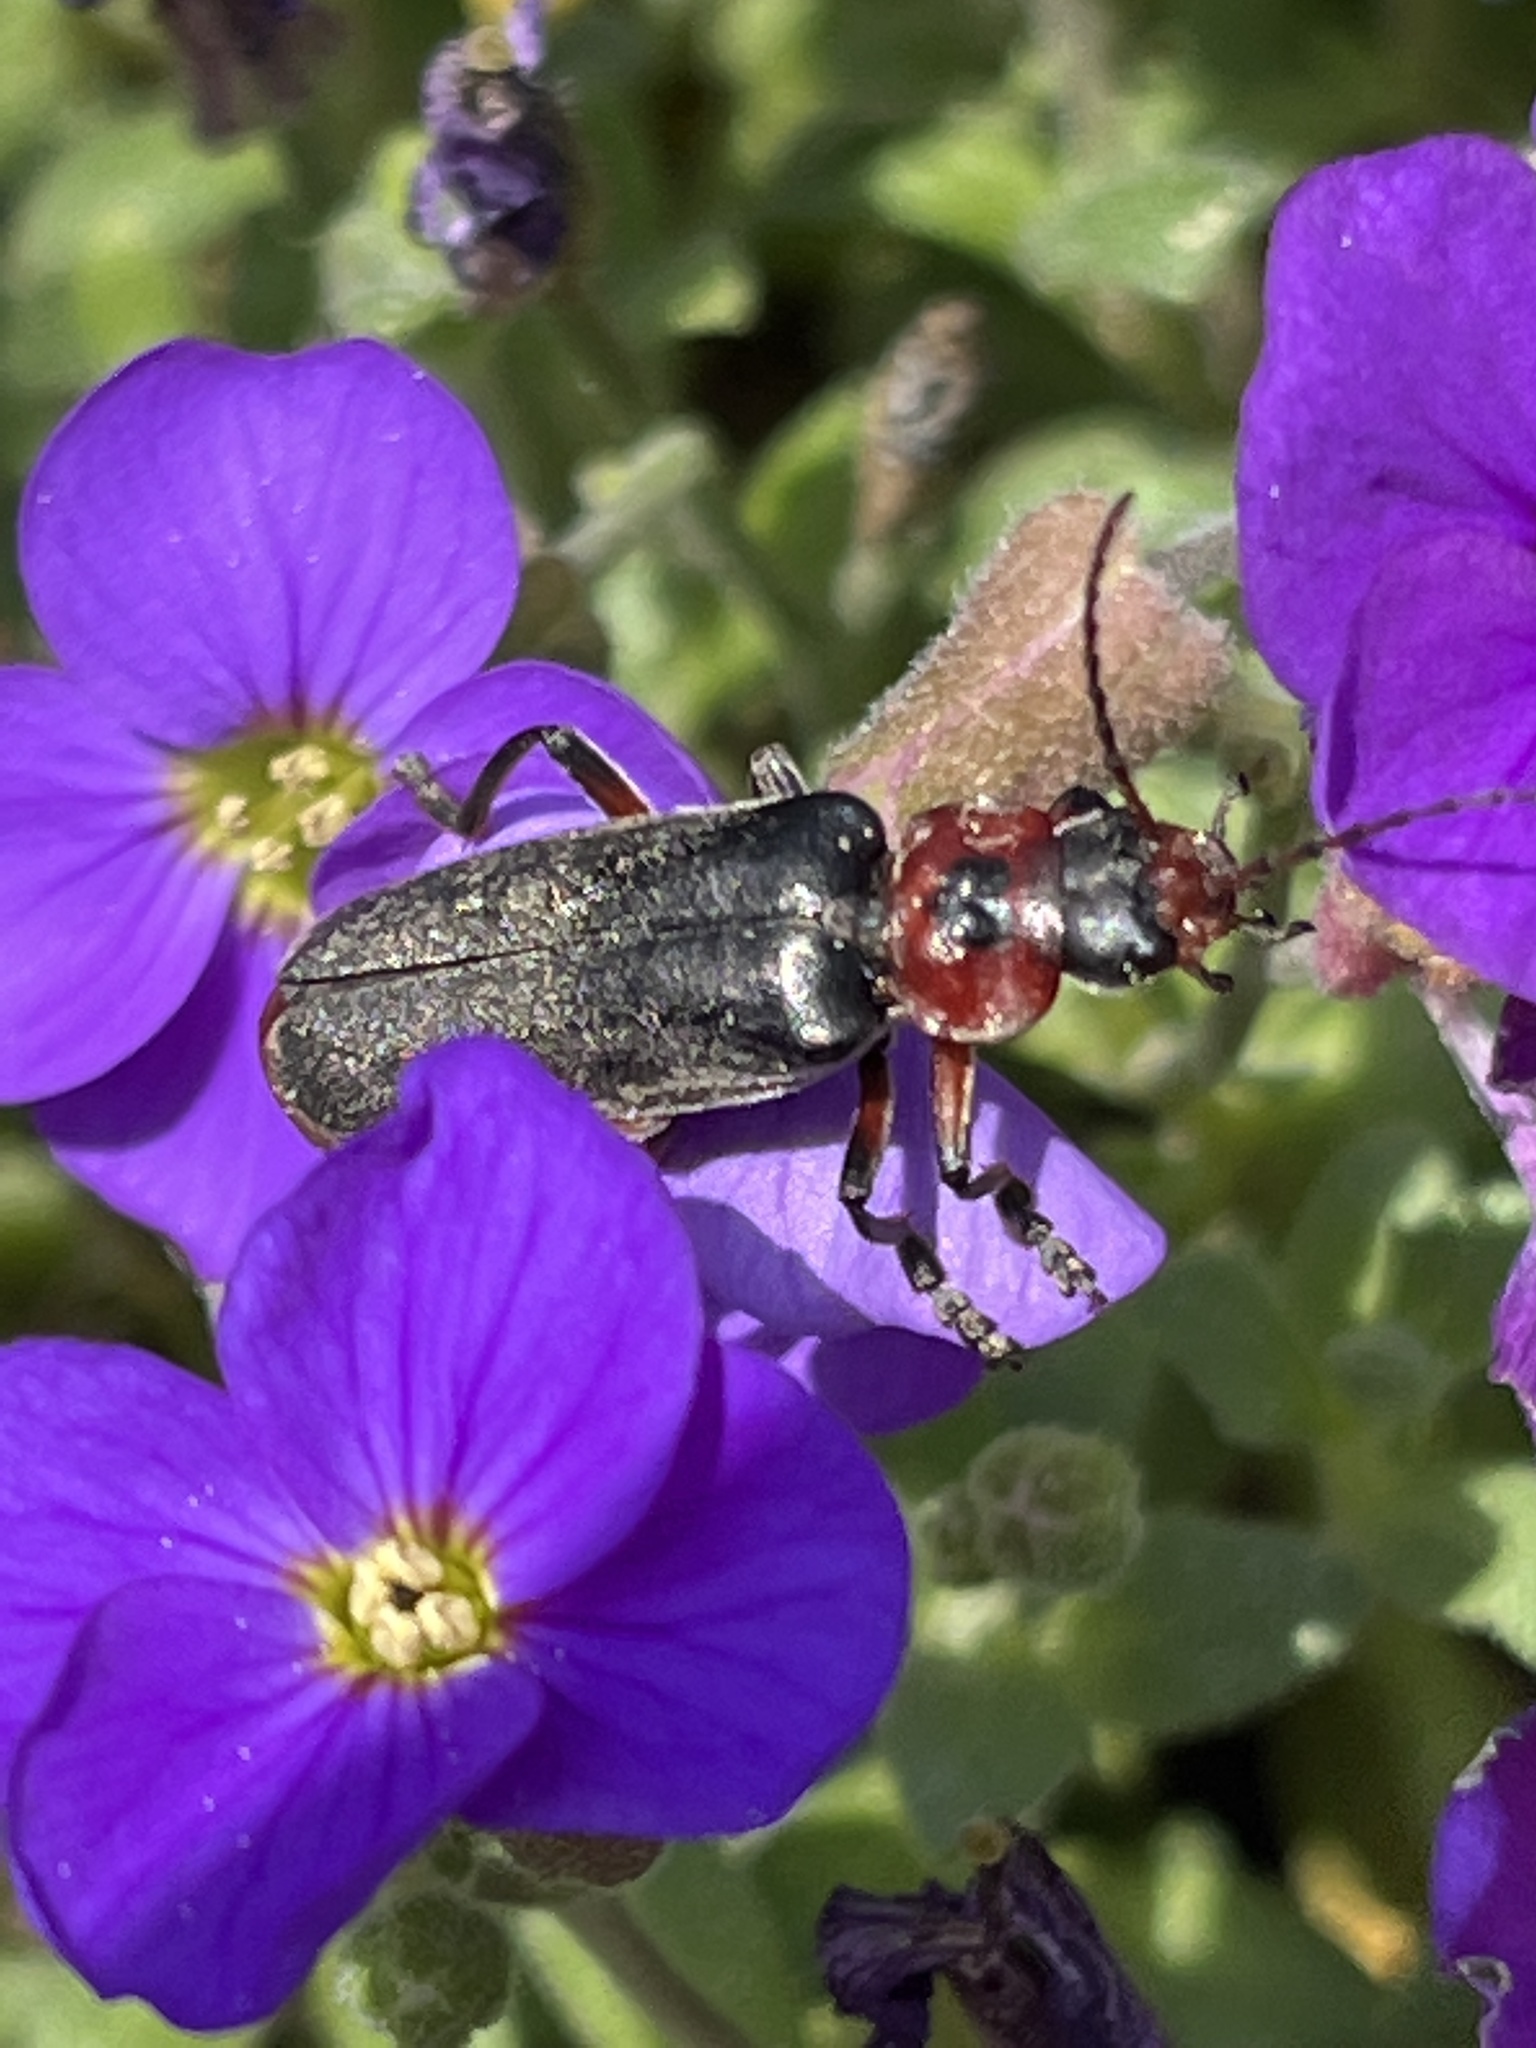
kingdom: Animalia
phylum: Arthropoda
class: Insecta
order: Coleoptera
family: Cantharidae
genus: Cantharis
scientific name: Cantharis rustica
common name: Soldier beetle
